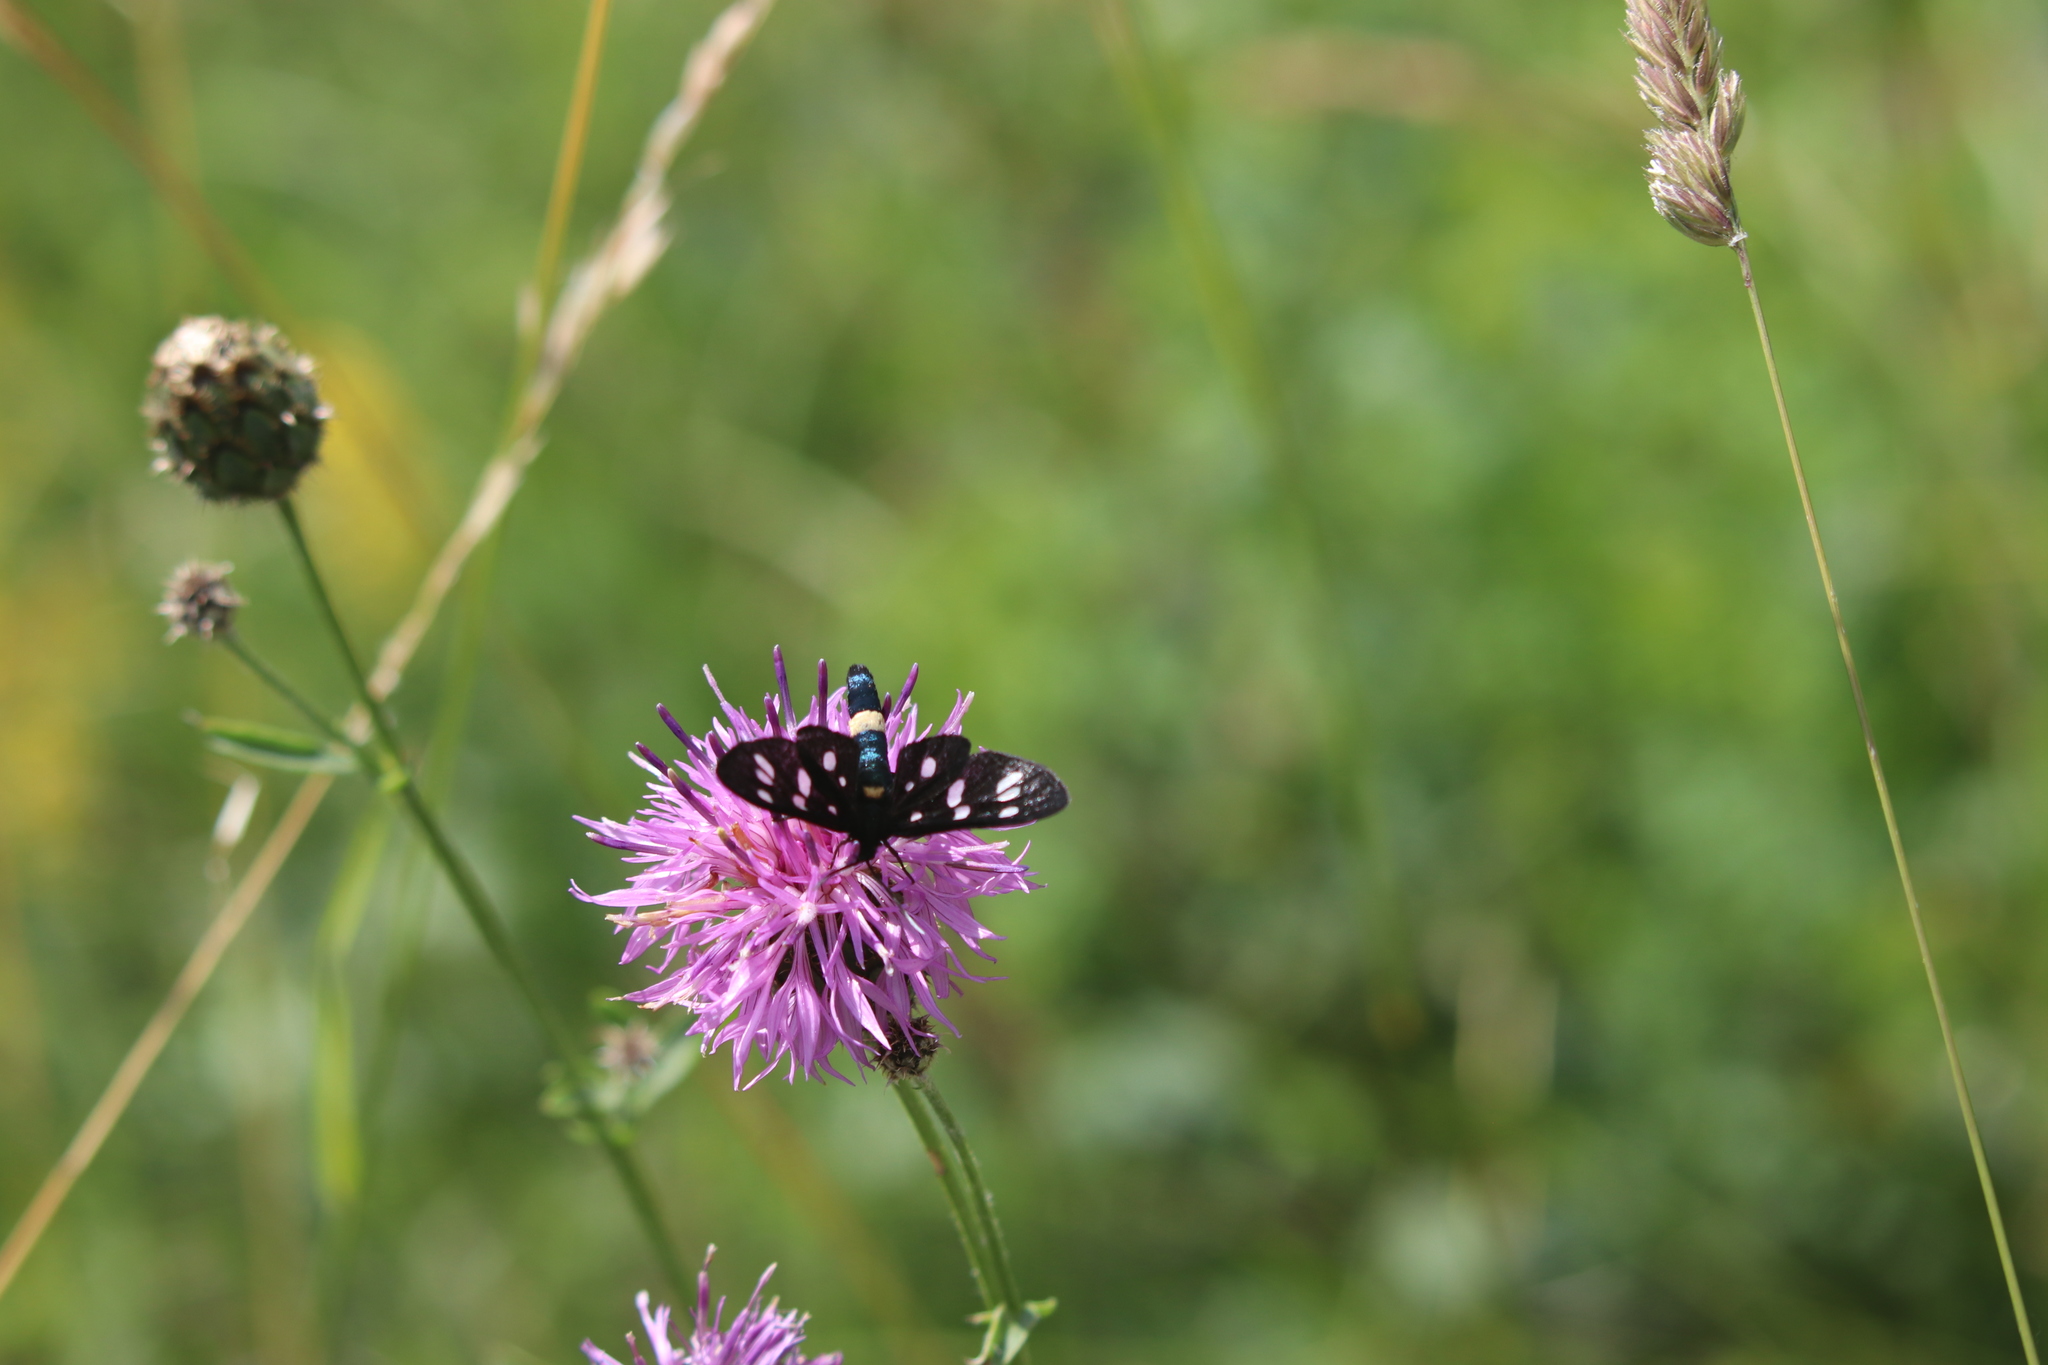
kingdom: Animalia
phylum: Arthropoda
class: Insecta
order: Lepidoptera
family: Erebidae
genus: Amata
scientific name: Amata phegea
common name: Nine-spotted
